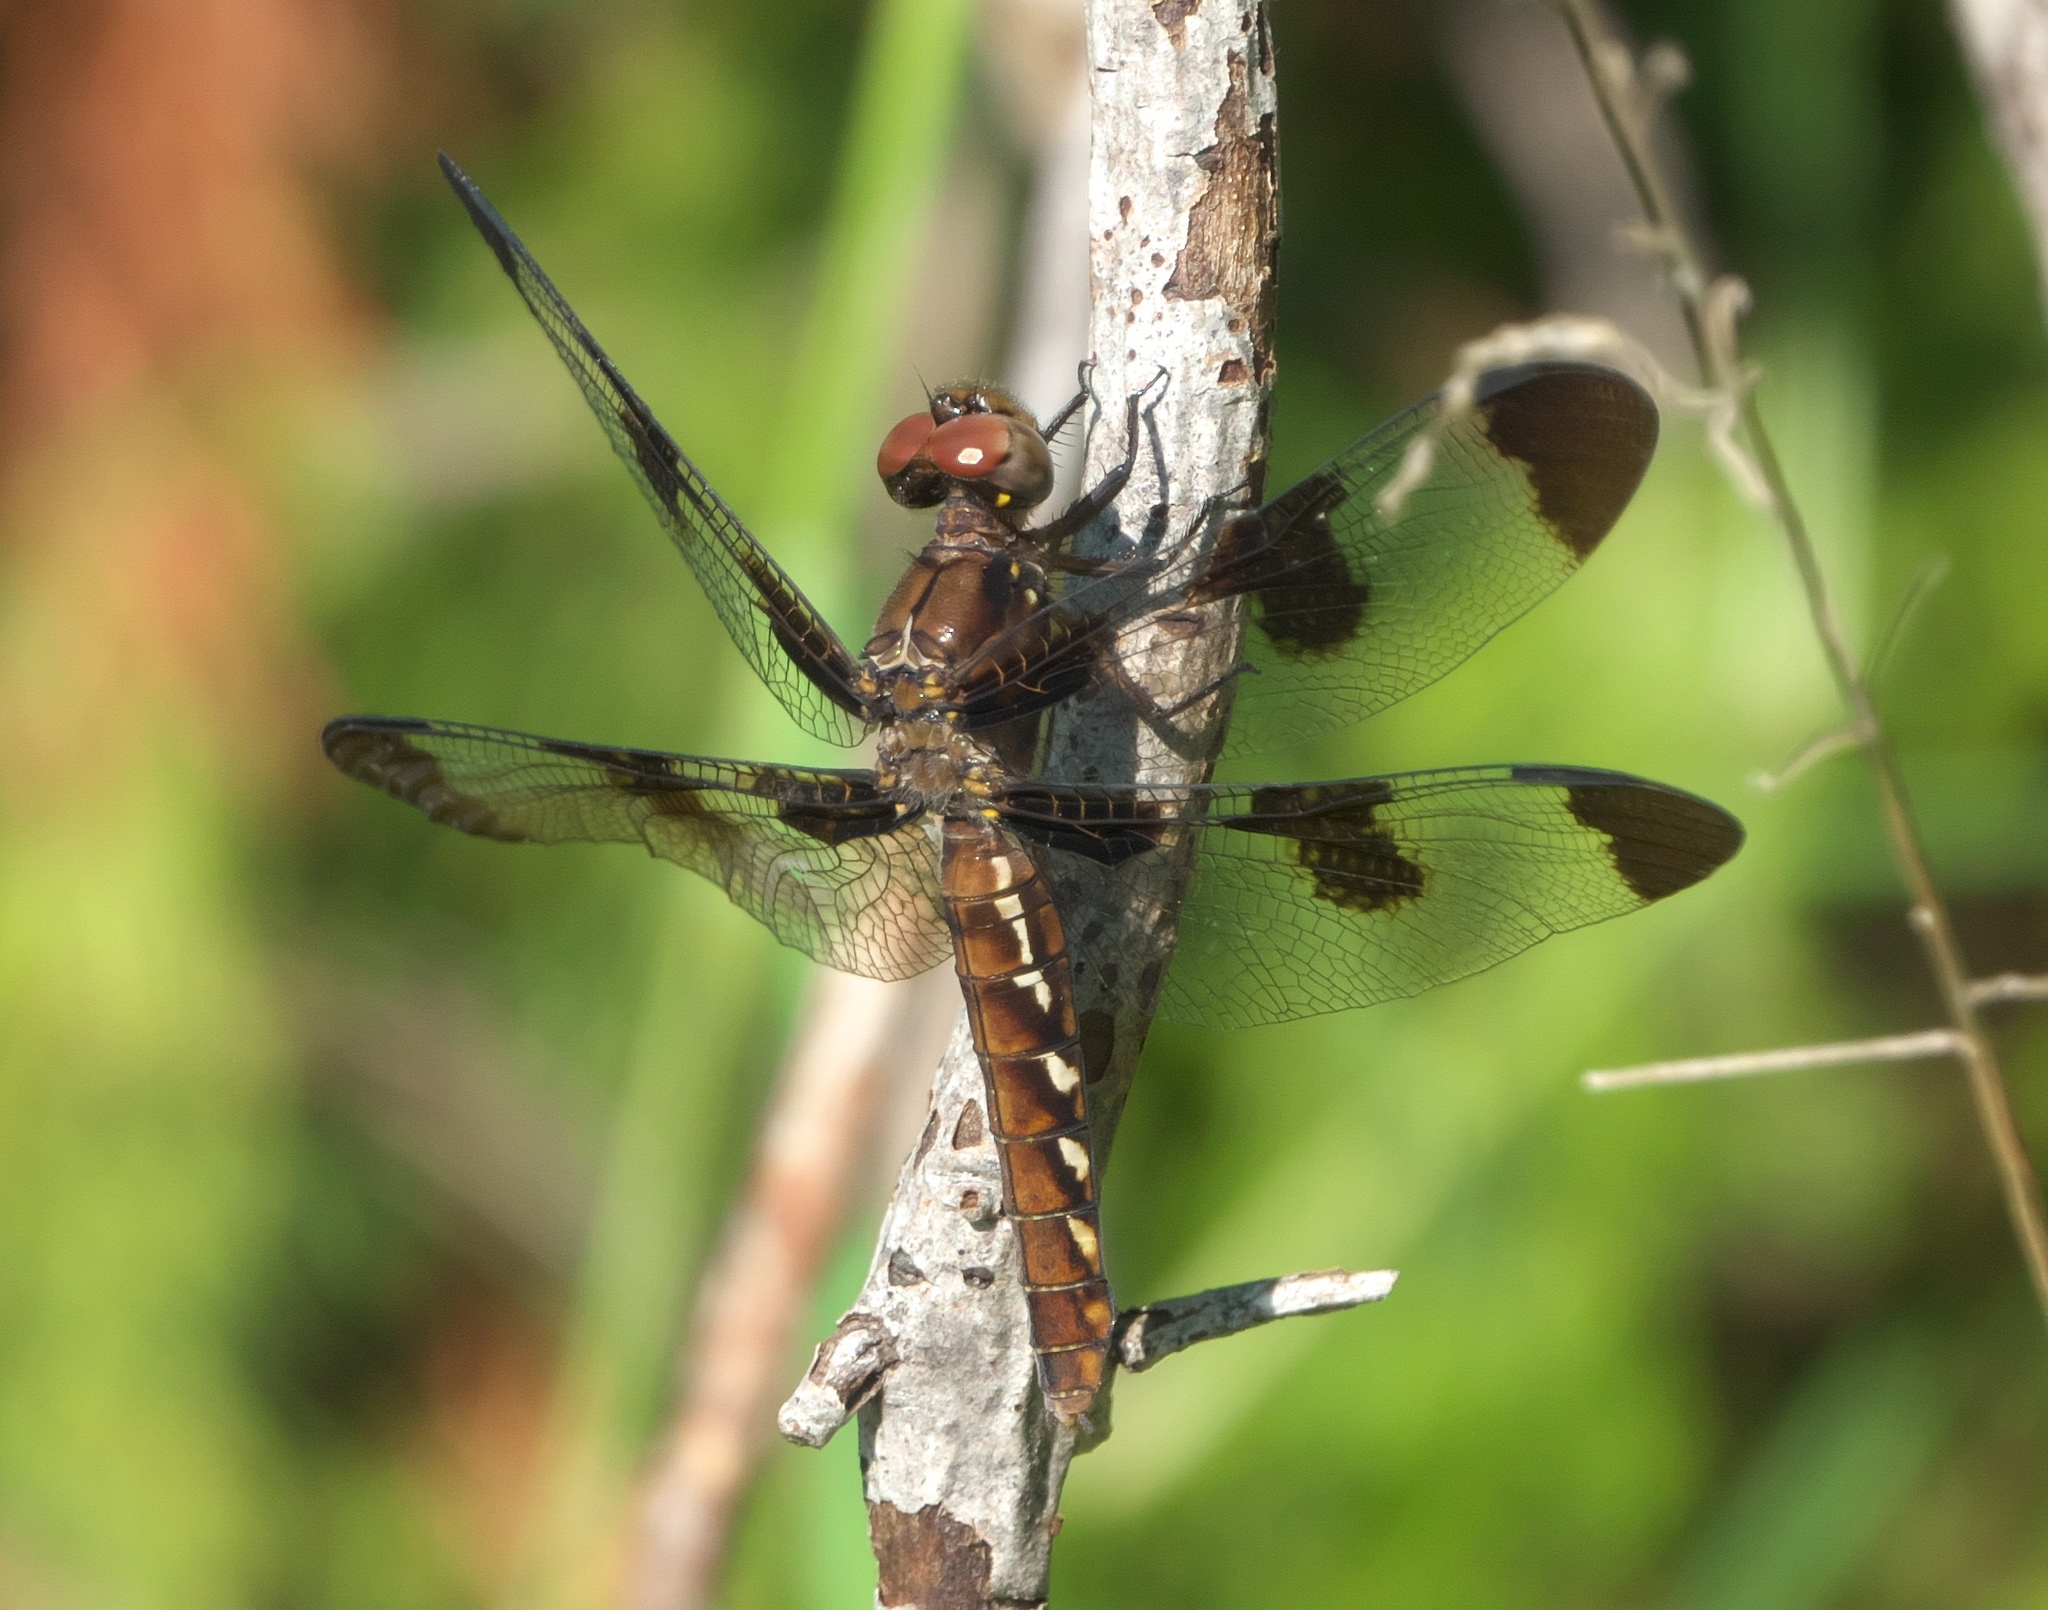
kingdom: Animalia
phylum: Arthropoda
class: Insecta
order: Odonata
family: Libellulidae
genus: Plathemis
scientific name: Plathemis lydia
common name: Common whitetail
